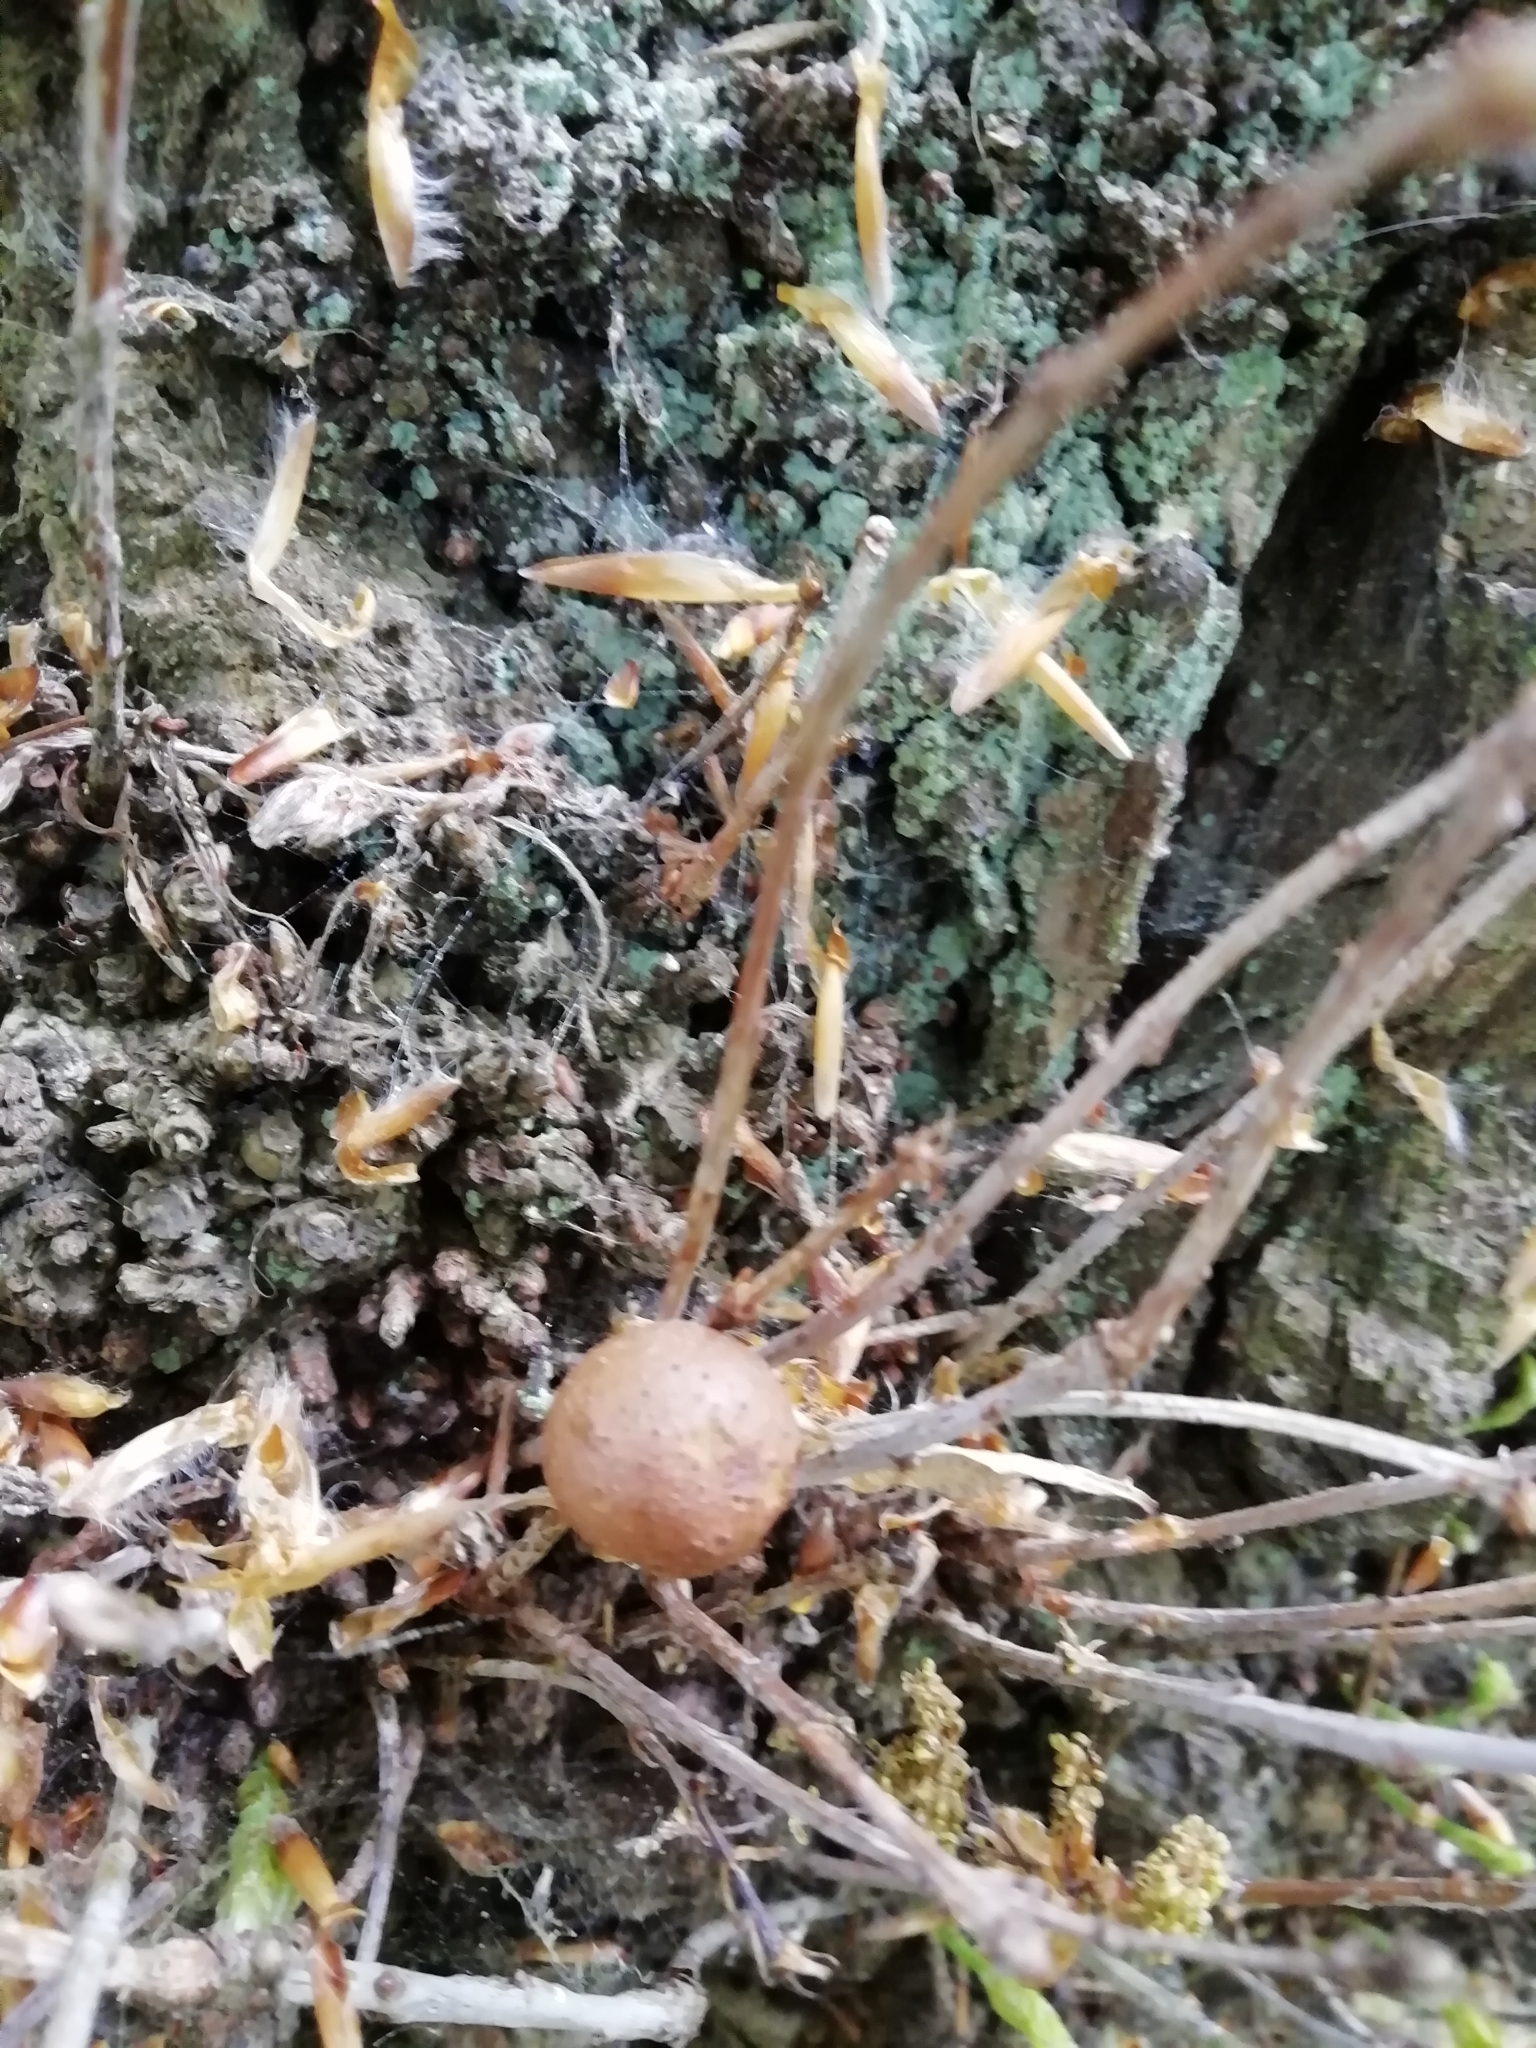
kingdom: Animalia
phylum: Arthropoda
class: Insecta
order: Hymenoptera
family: Cynipidae
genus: Andricus
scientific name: Andricus kollari
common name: Marble gall
